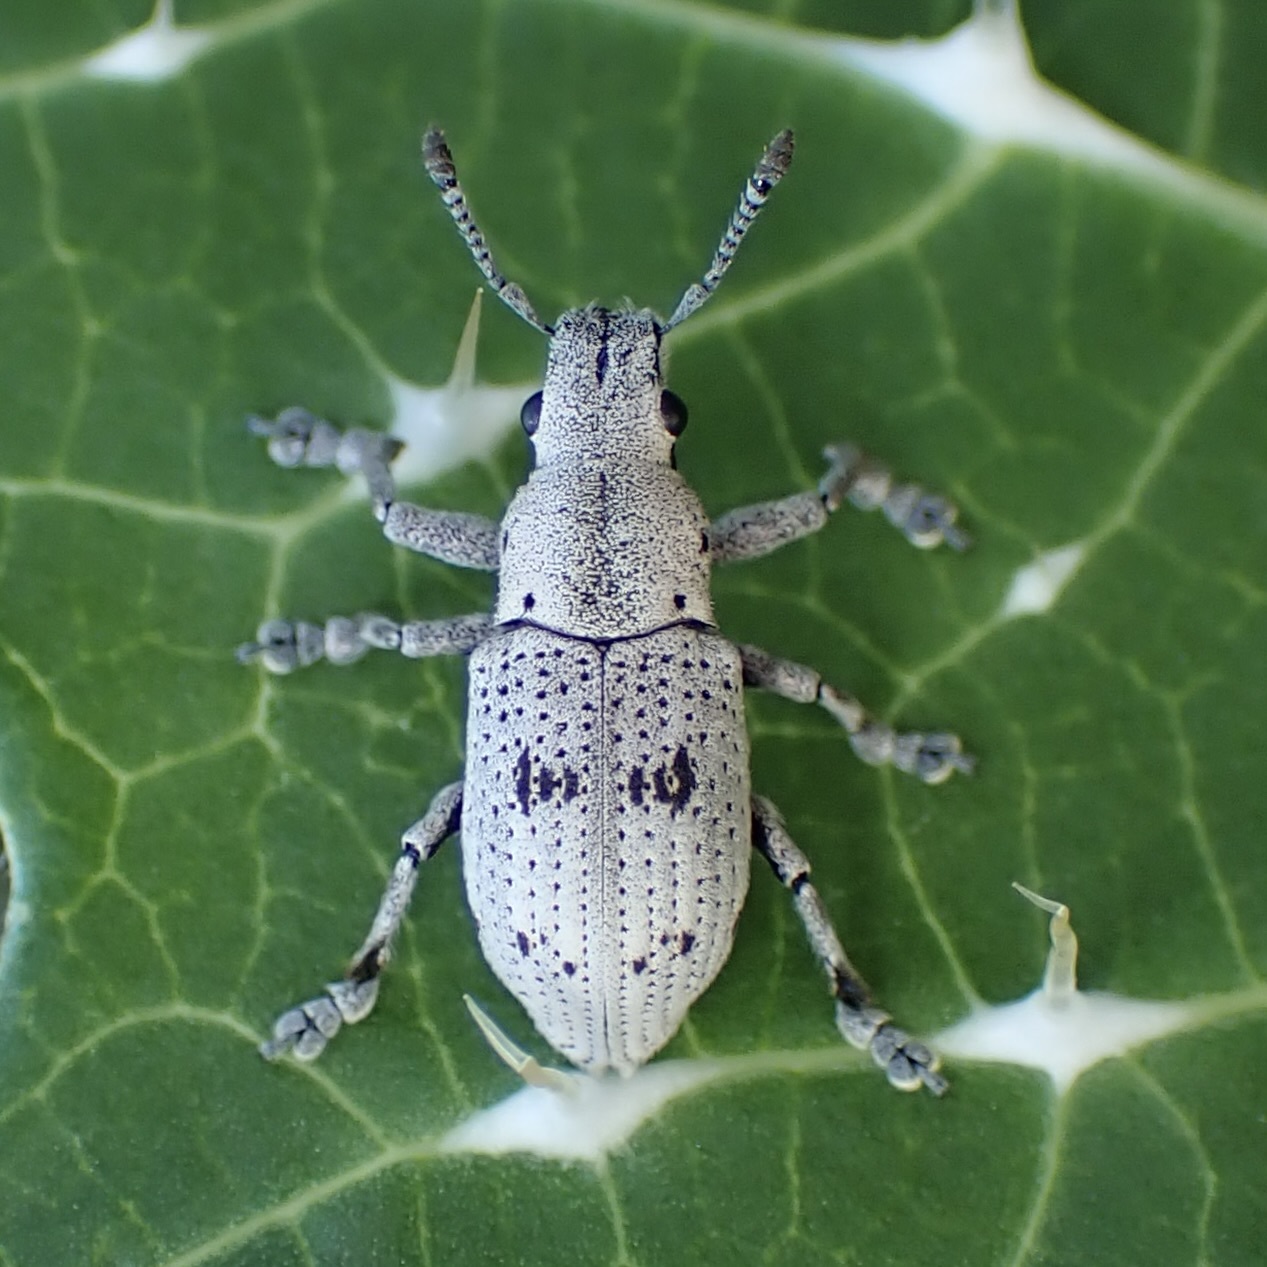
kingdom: Animalia
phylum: Arthropoda
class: Insecta
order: Coleoptera
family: Curculionidae
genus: Ericydeus
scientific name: Ericydeus lautus
